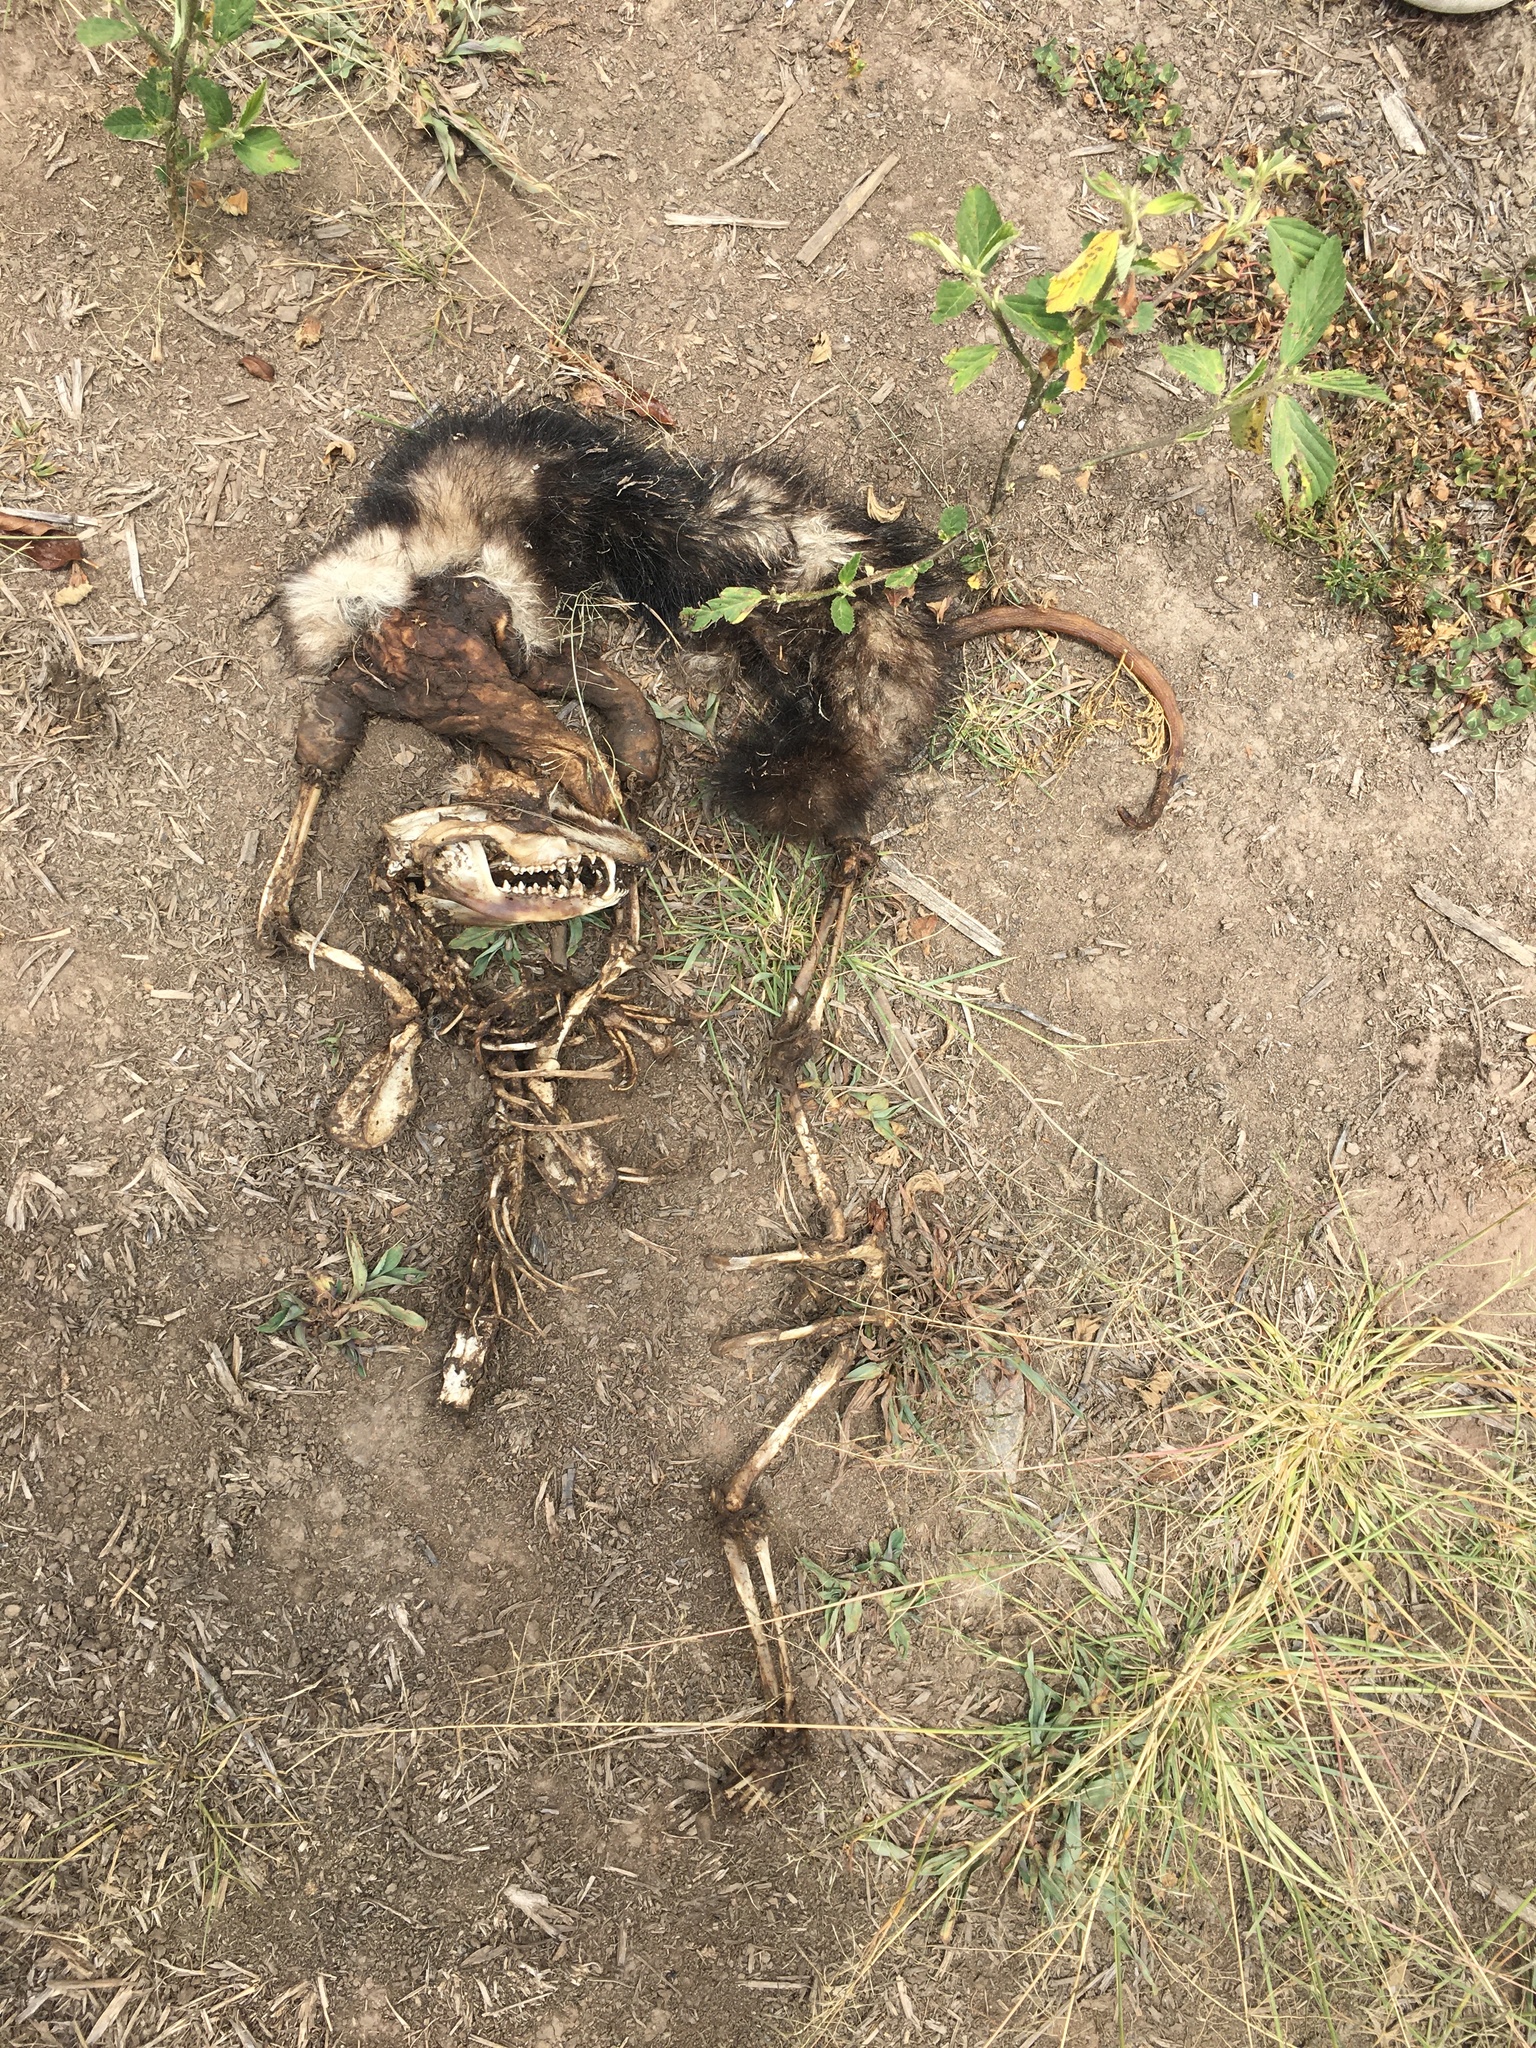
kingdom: Animalia
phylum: Chordata
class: Mammalia
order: Didelphimorphia
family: Didelphidae
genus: Didelphis
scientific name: Didelphis pernigra
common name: Andean white-eared opossum
